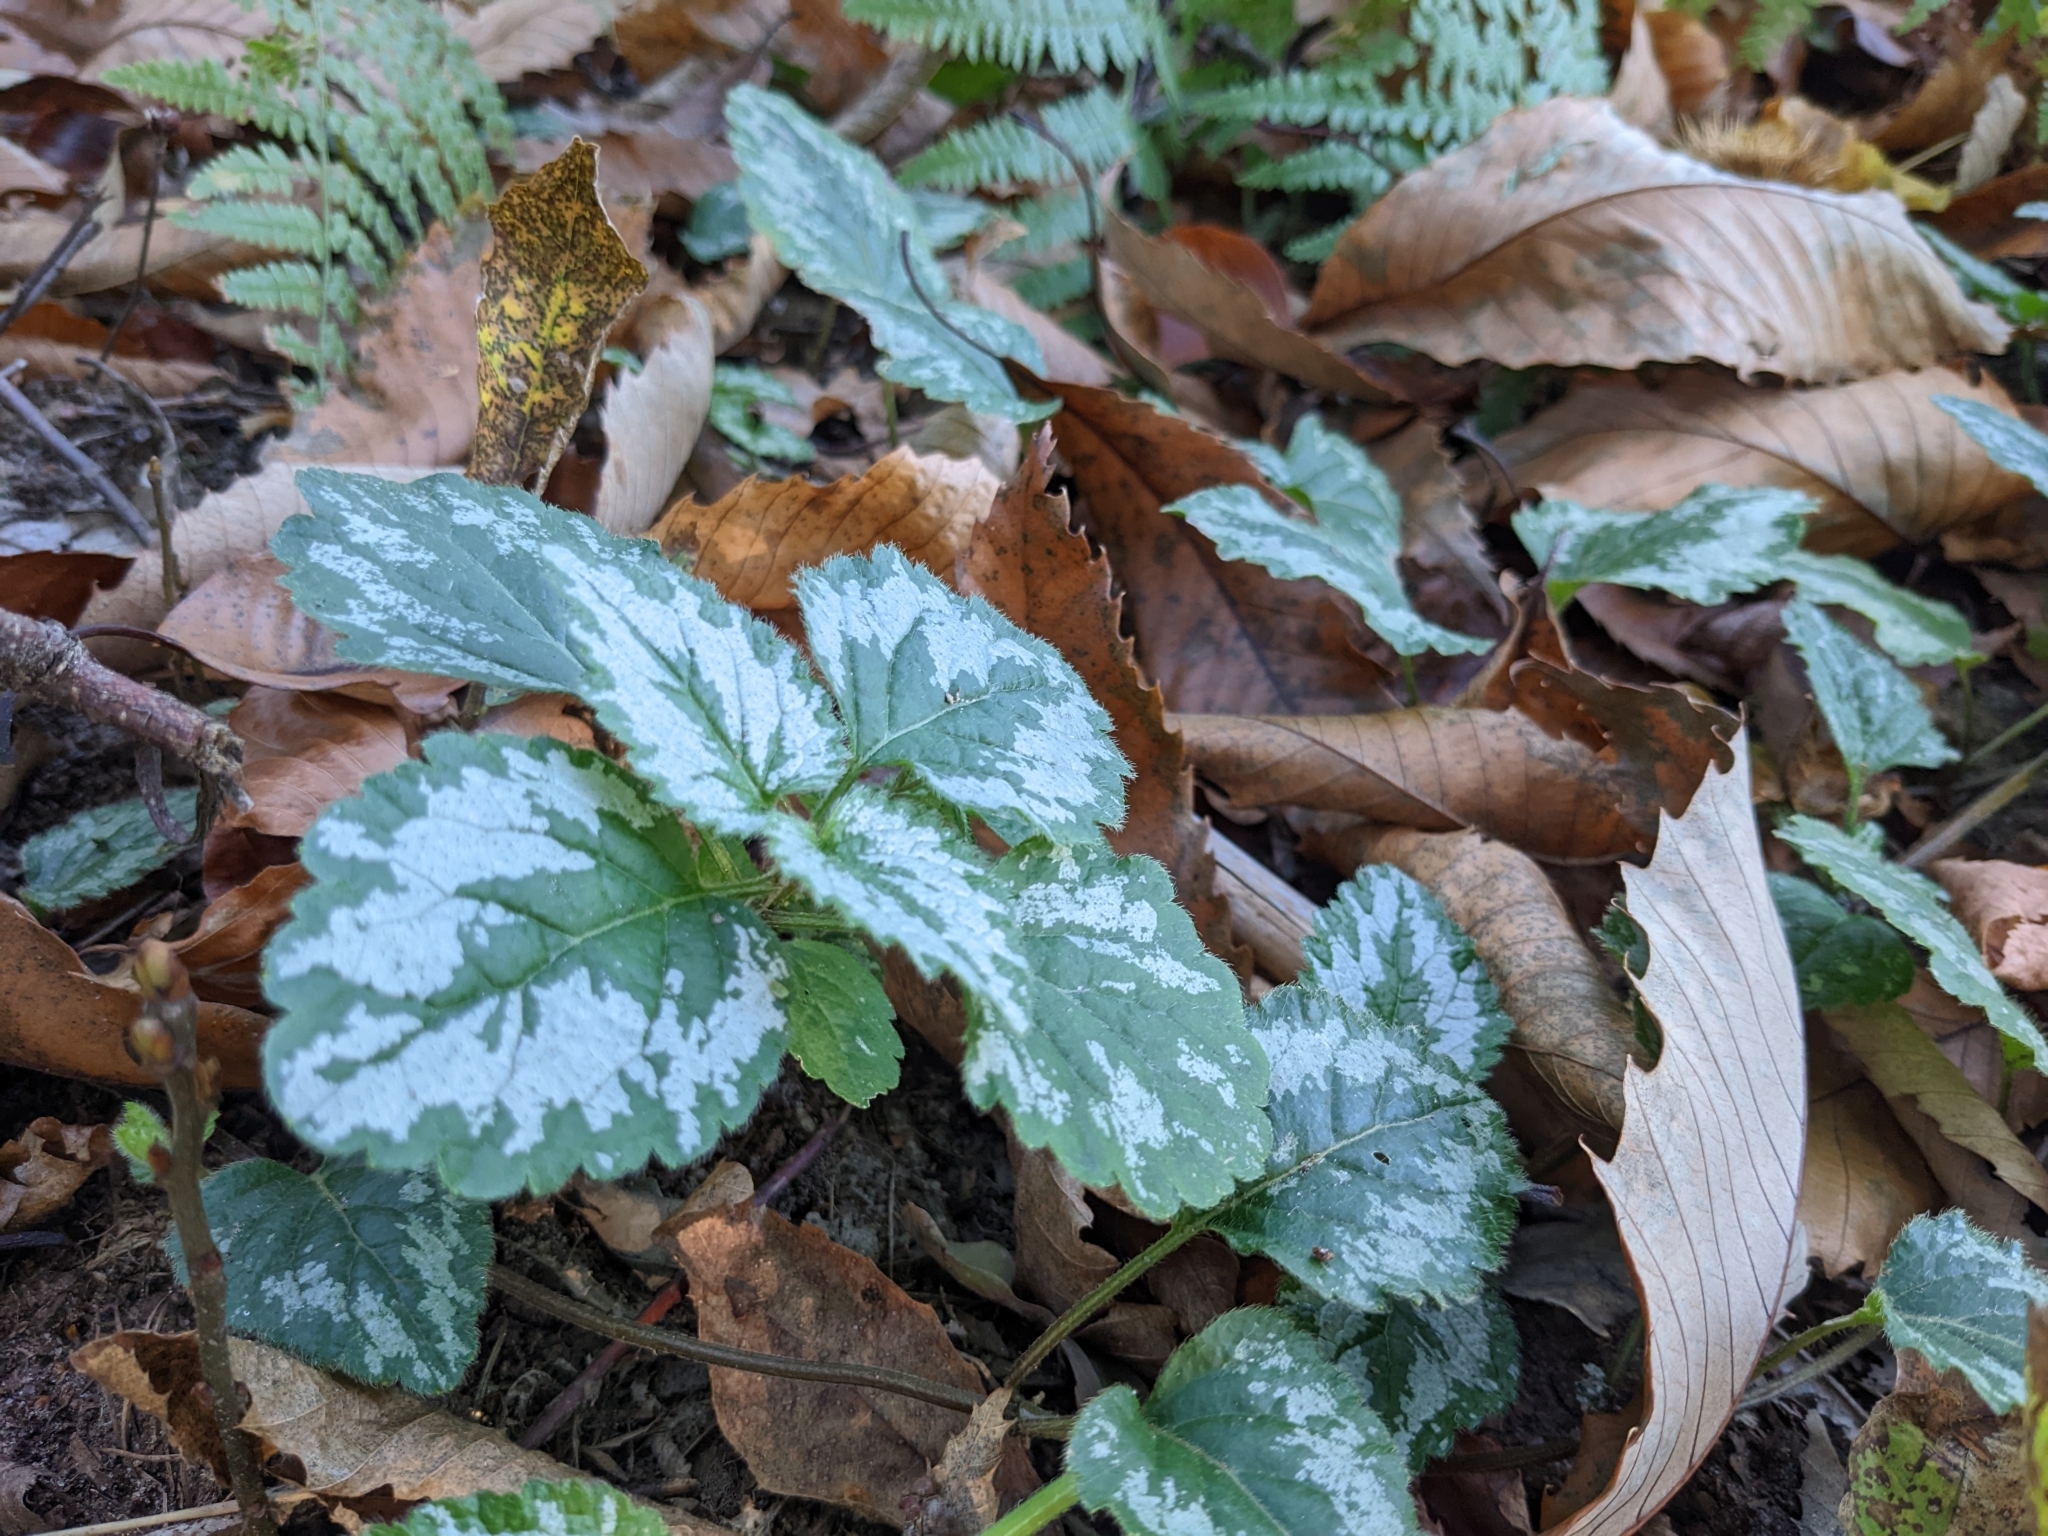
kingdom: Plantae
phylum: Tracheophyta
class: Magnoliopsida
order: Lamiales
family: Lamiaceae
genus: Lamium
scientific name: Lamium galeobdolon
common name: Yellow archangel
